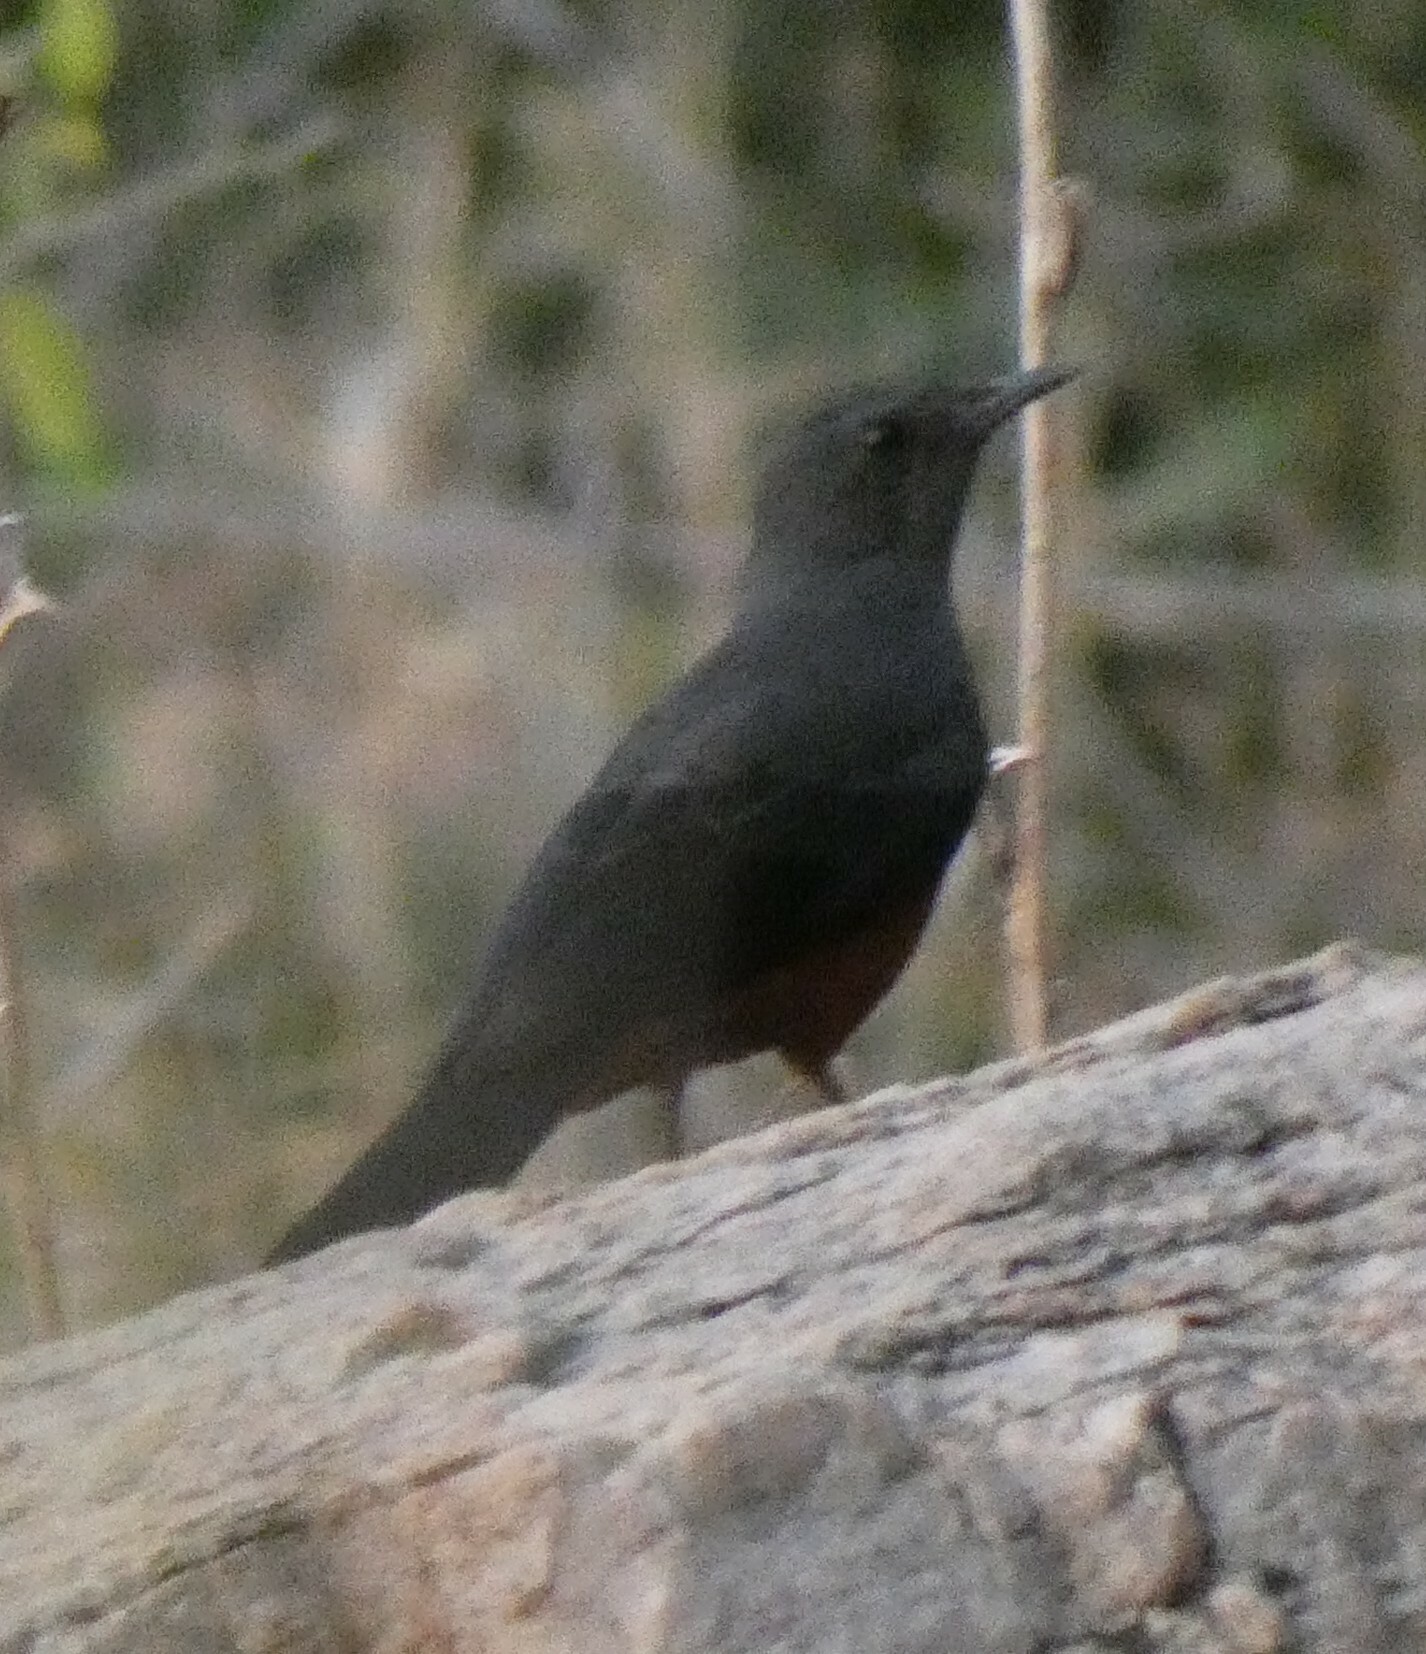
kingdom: Animalia
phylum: Chordata
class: Aves
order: Passeriformes
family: Muscicapidae
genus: Thamnolaea
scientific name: Thamnolaea cinnamomeiventris
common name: Mocking cliff chat
